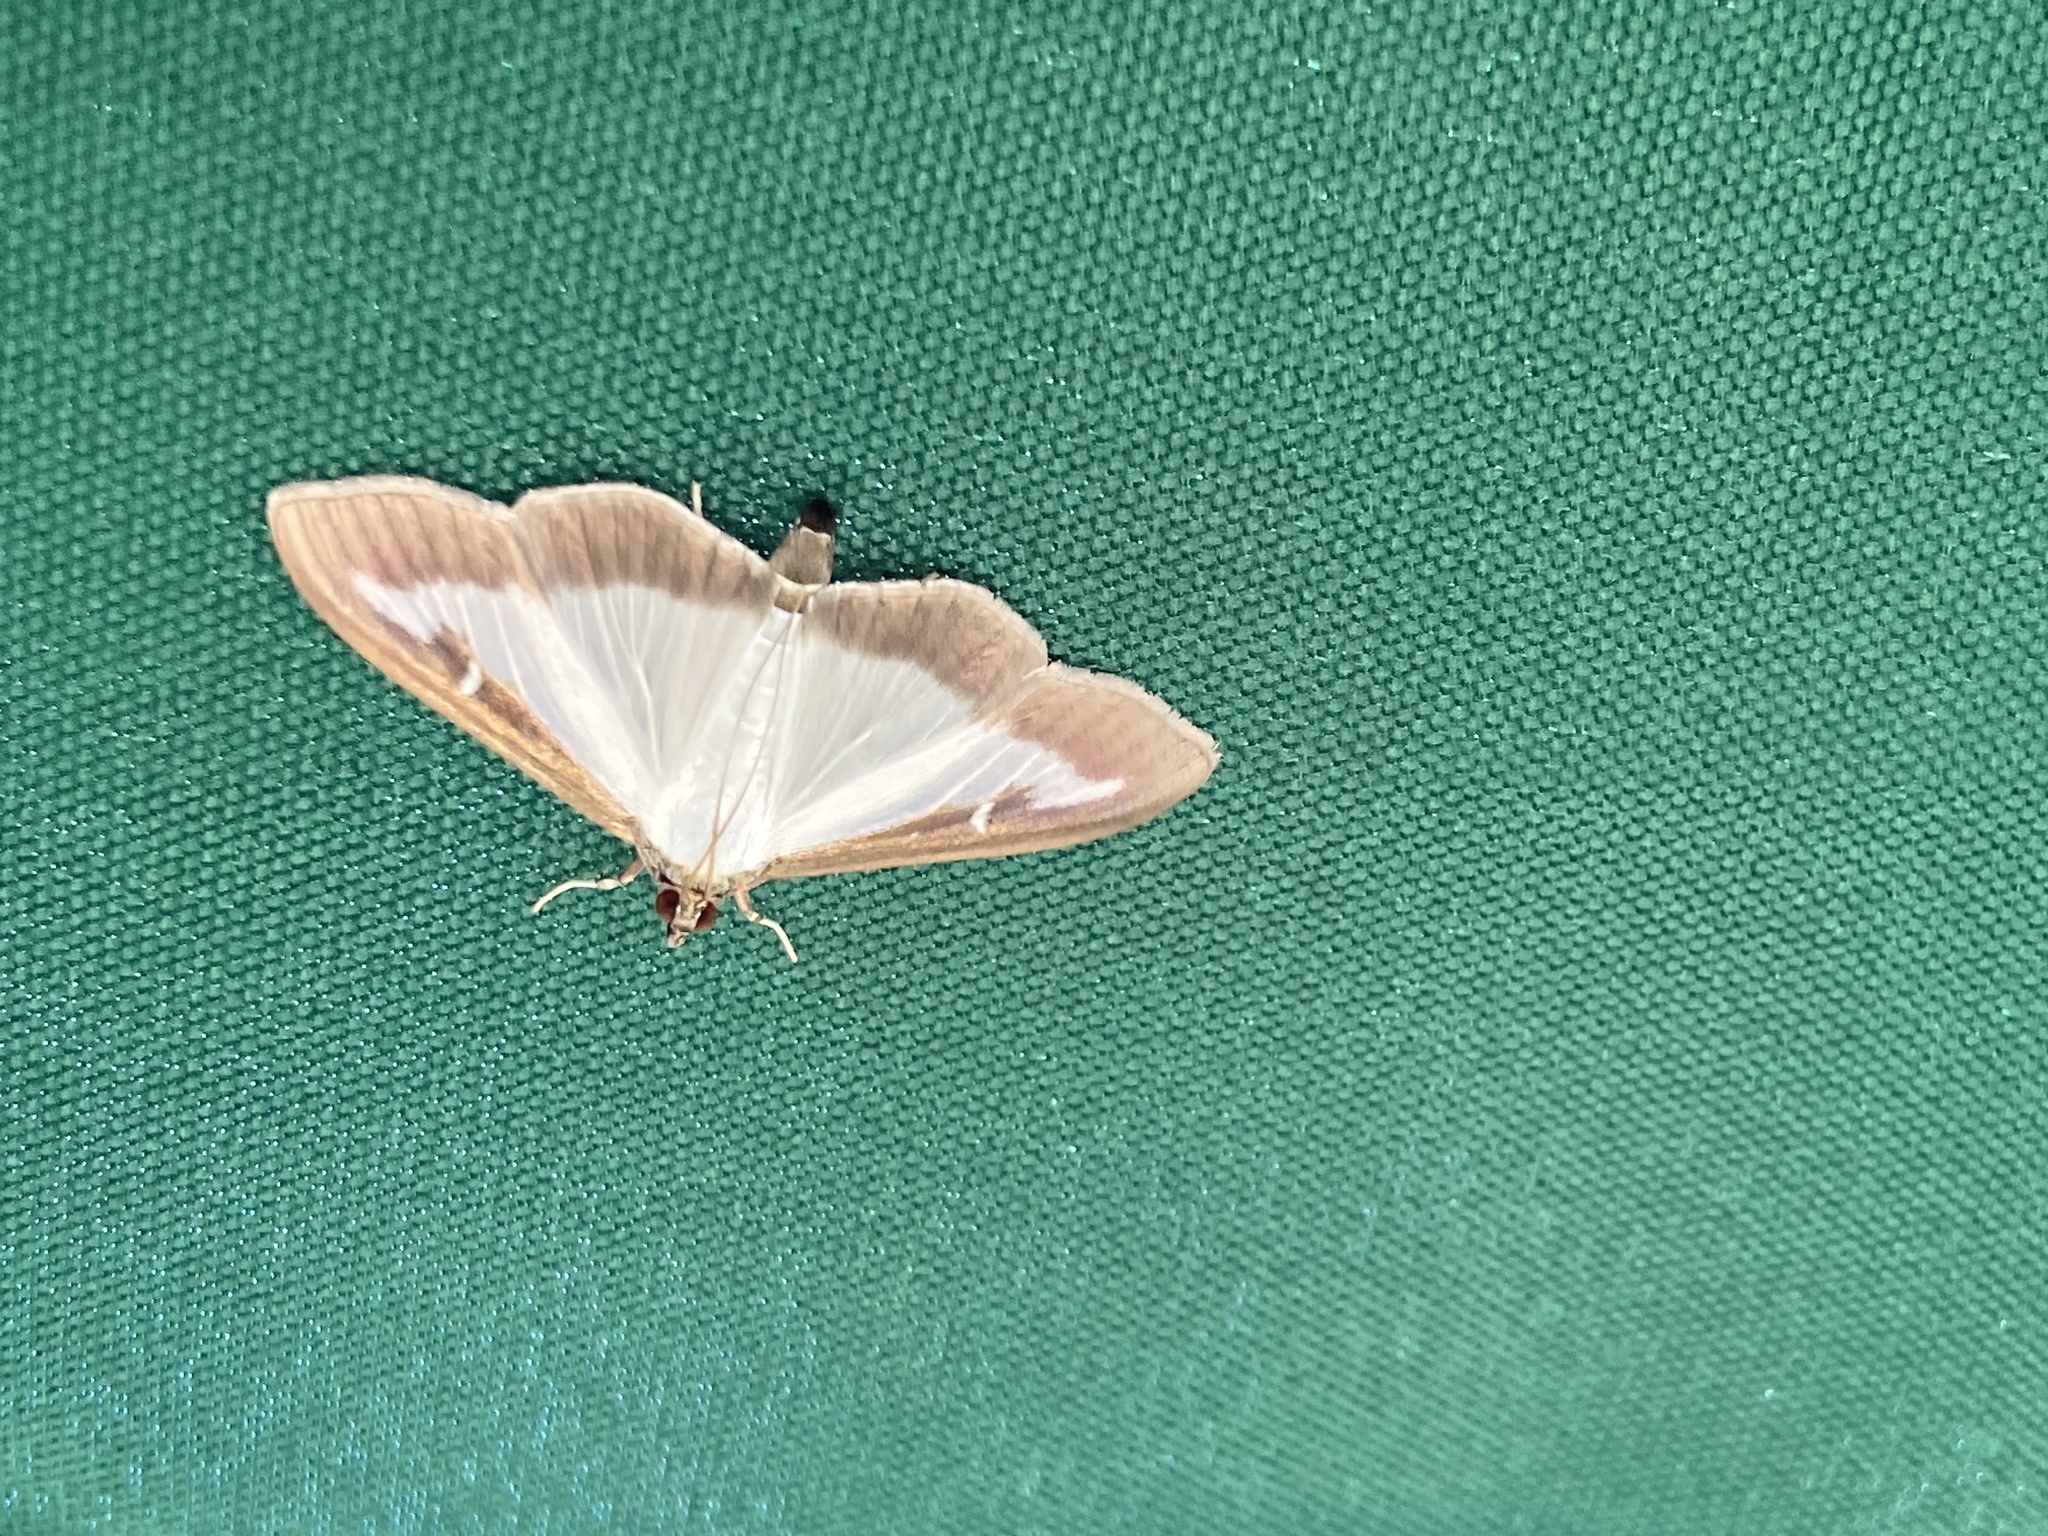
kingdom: Animalia
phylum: Arthropoda
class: Insecta
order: Lepidoptera
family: Crambidae
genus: Cydalima
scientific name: Cydalima perspectalis
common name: Box tree moth
